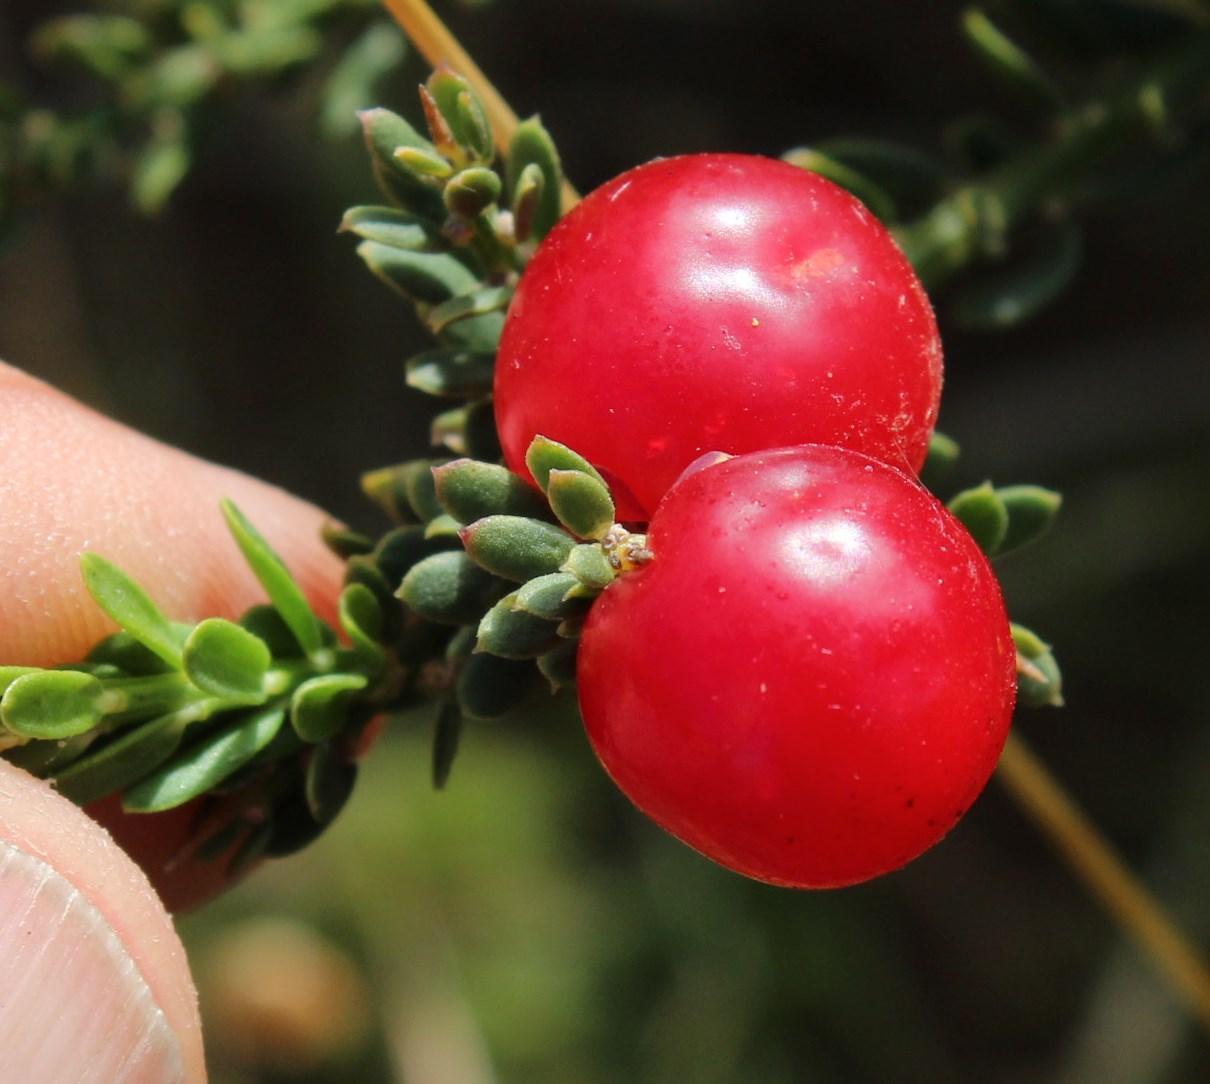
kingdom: Plantae
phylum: Tracheophyta
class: Magnoliopsida
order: Fabales
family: Polygalaceae
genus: Muraltia
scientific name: Muraltia spinosa
